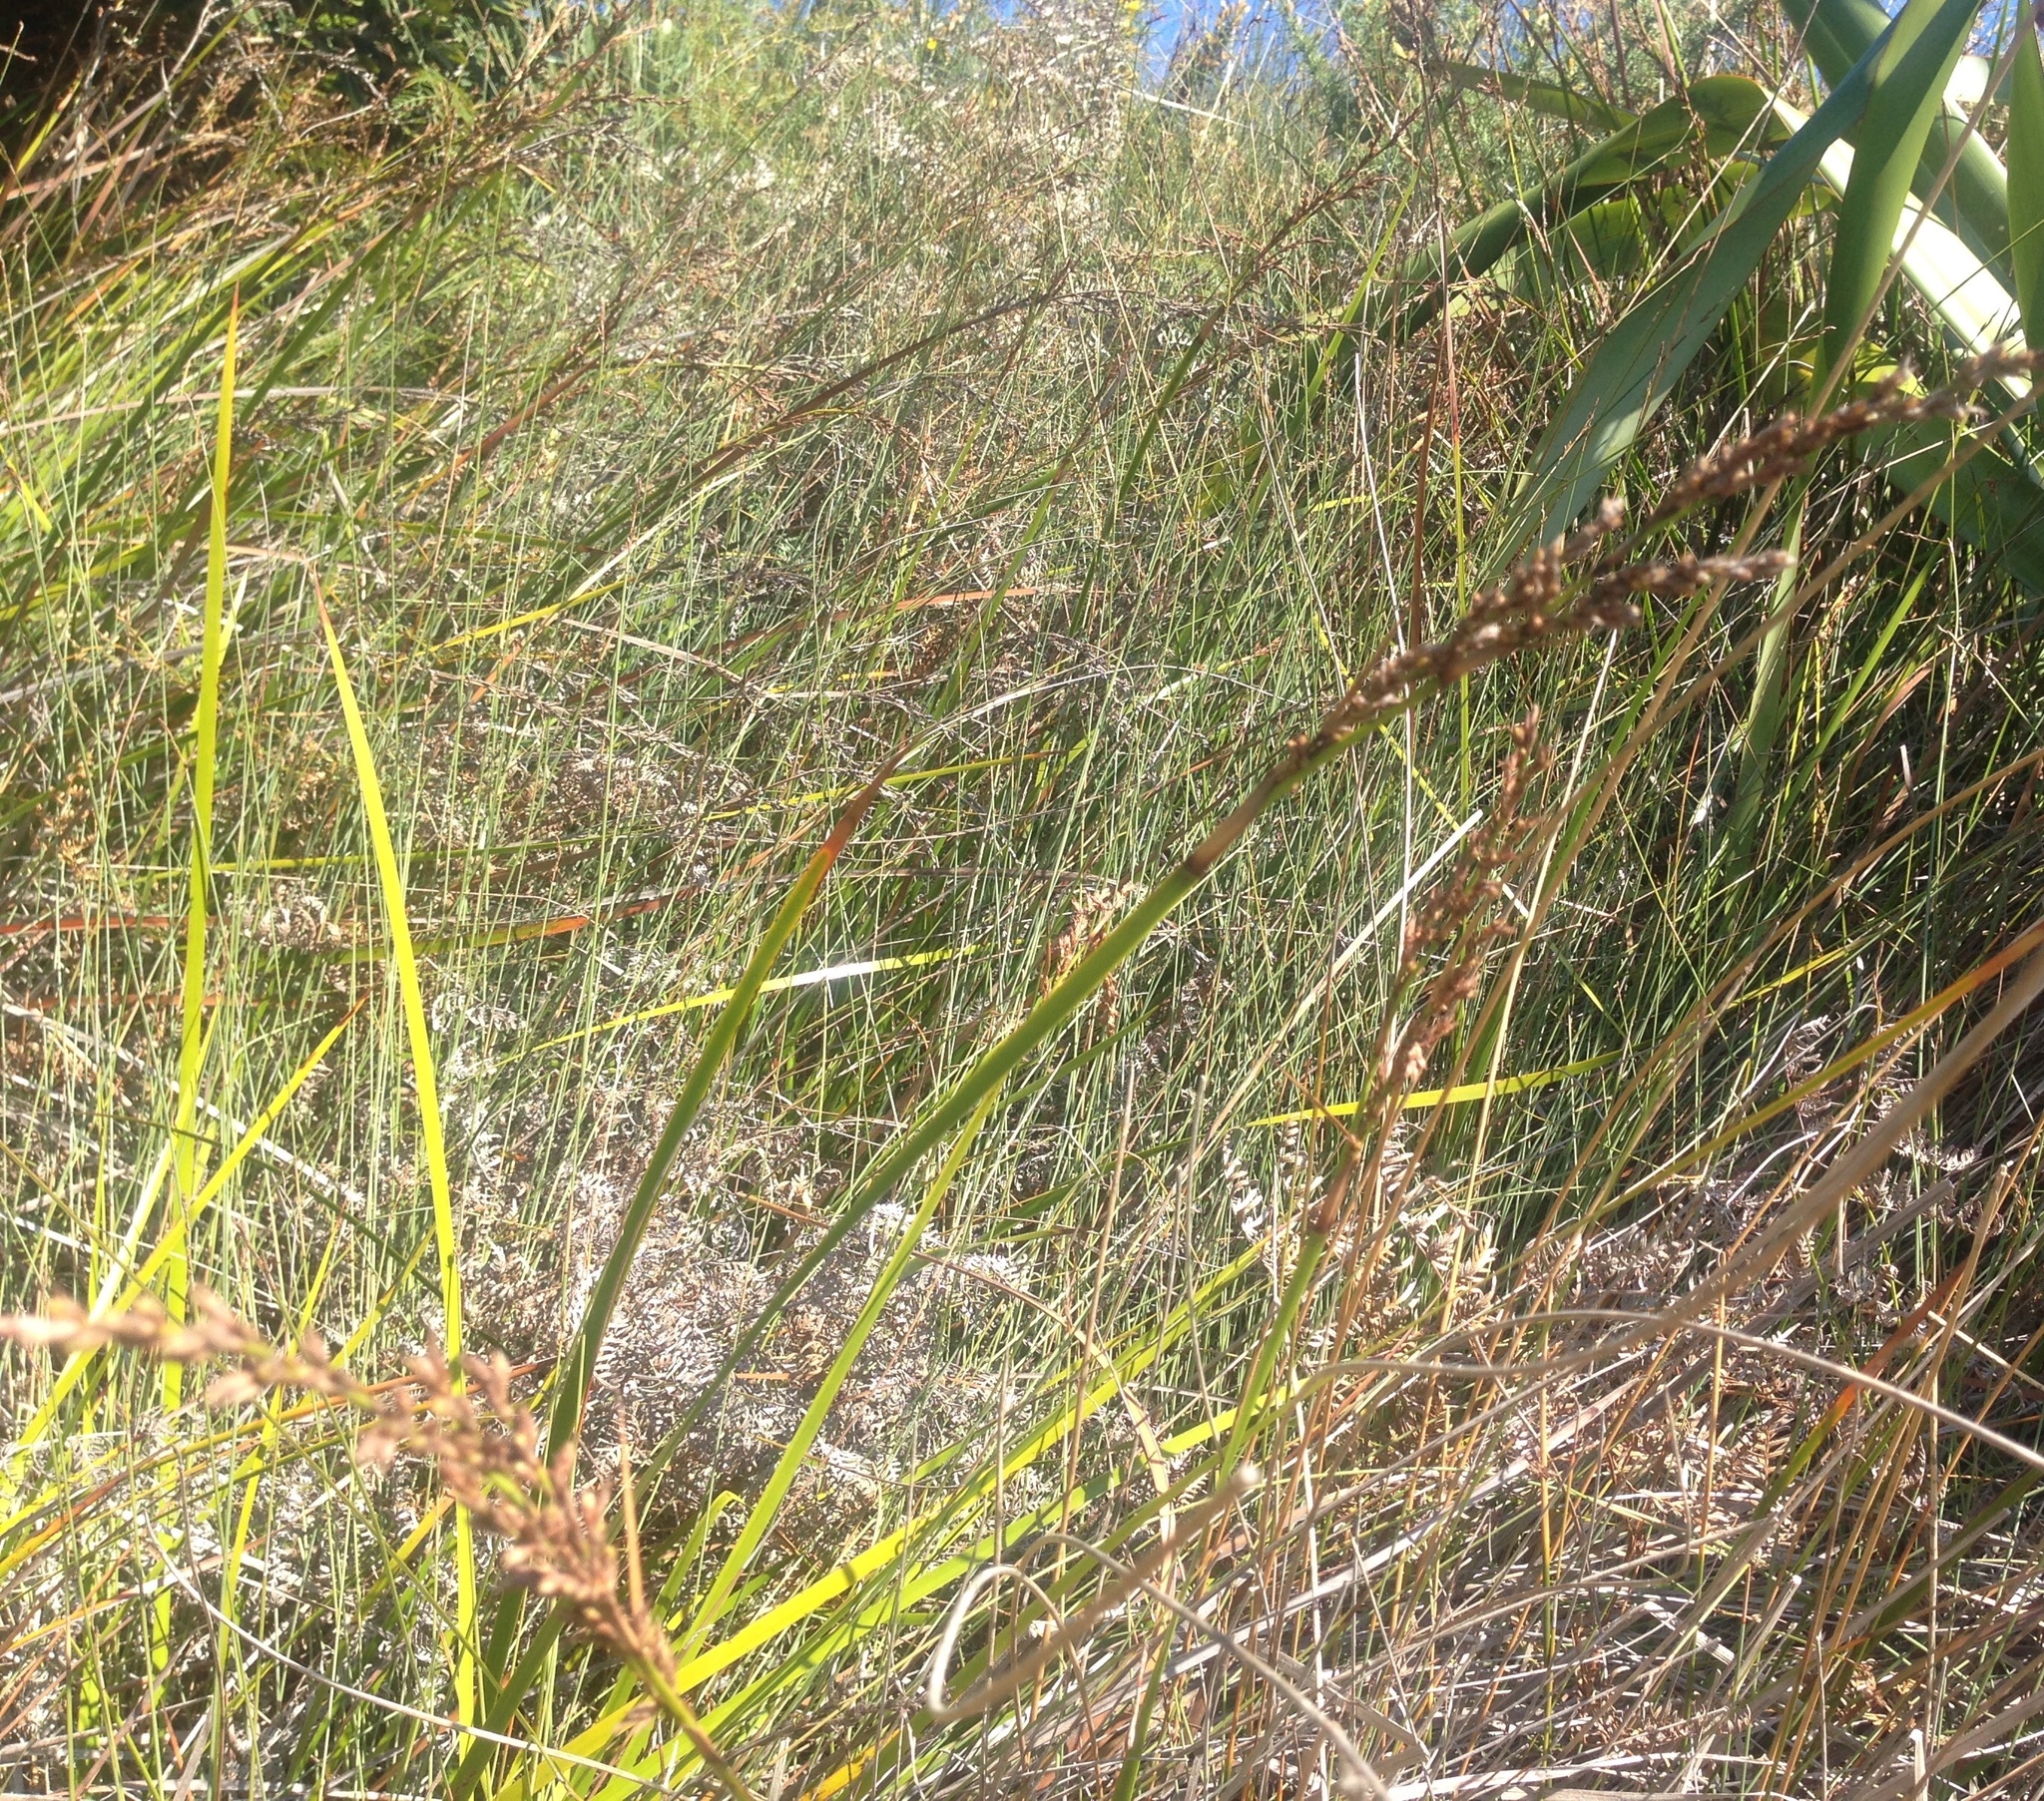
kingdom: Plantae
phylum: Tracheophyta
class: Liliopsida
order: Poales
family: Cyperaceae
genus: Lepidosperma
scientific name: Lepidosperma laterale
